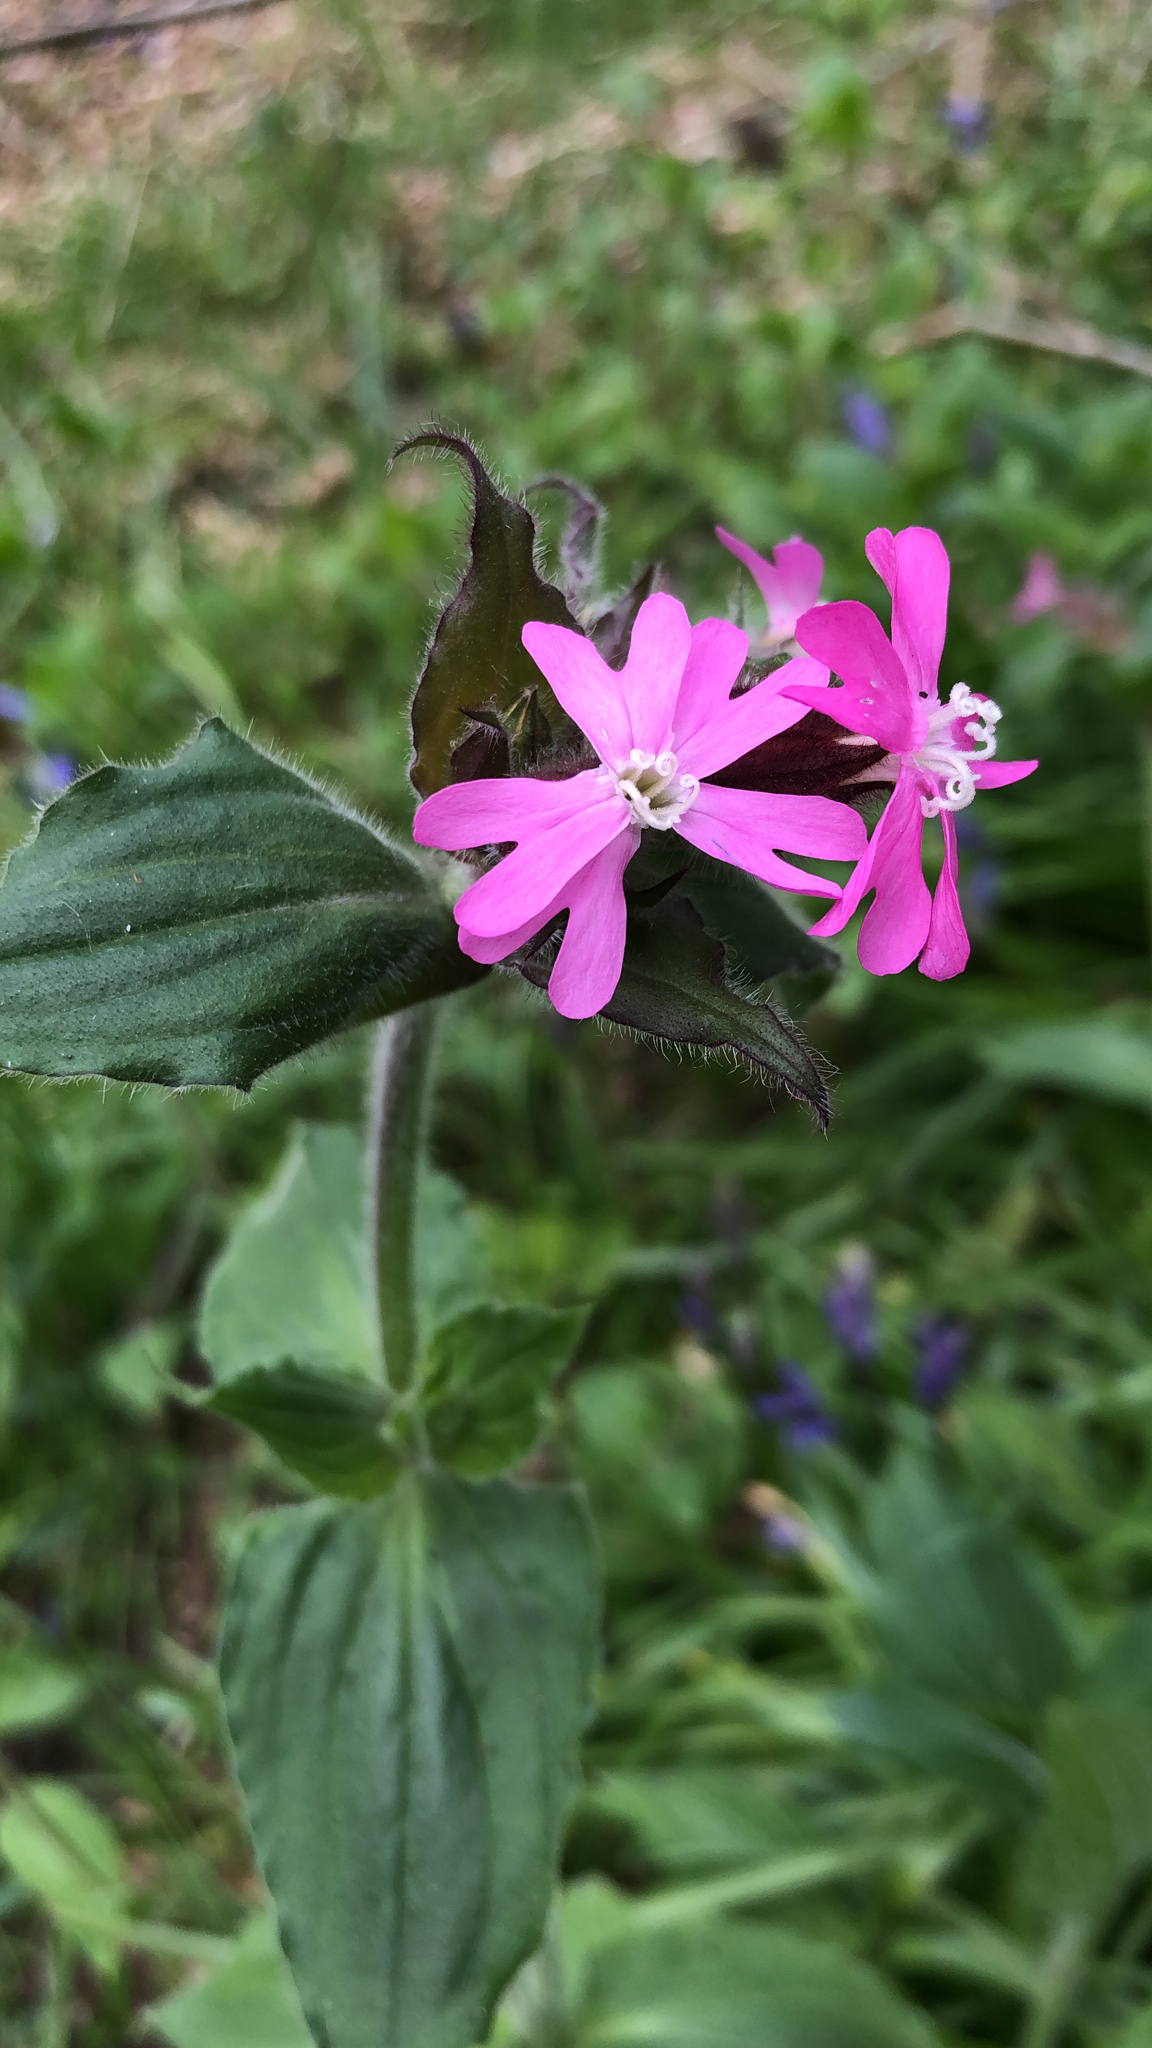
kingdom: Plantae
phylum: Tracheophyta
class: Magnoliopsida
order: Caryophyllales
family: Caryophyllaceae
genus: Silene
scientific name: Silene dioica
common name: Red campion
